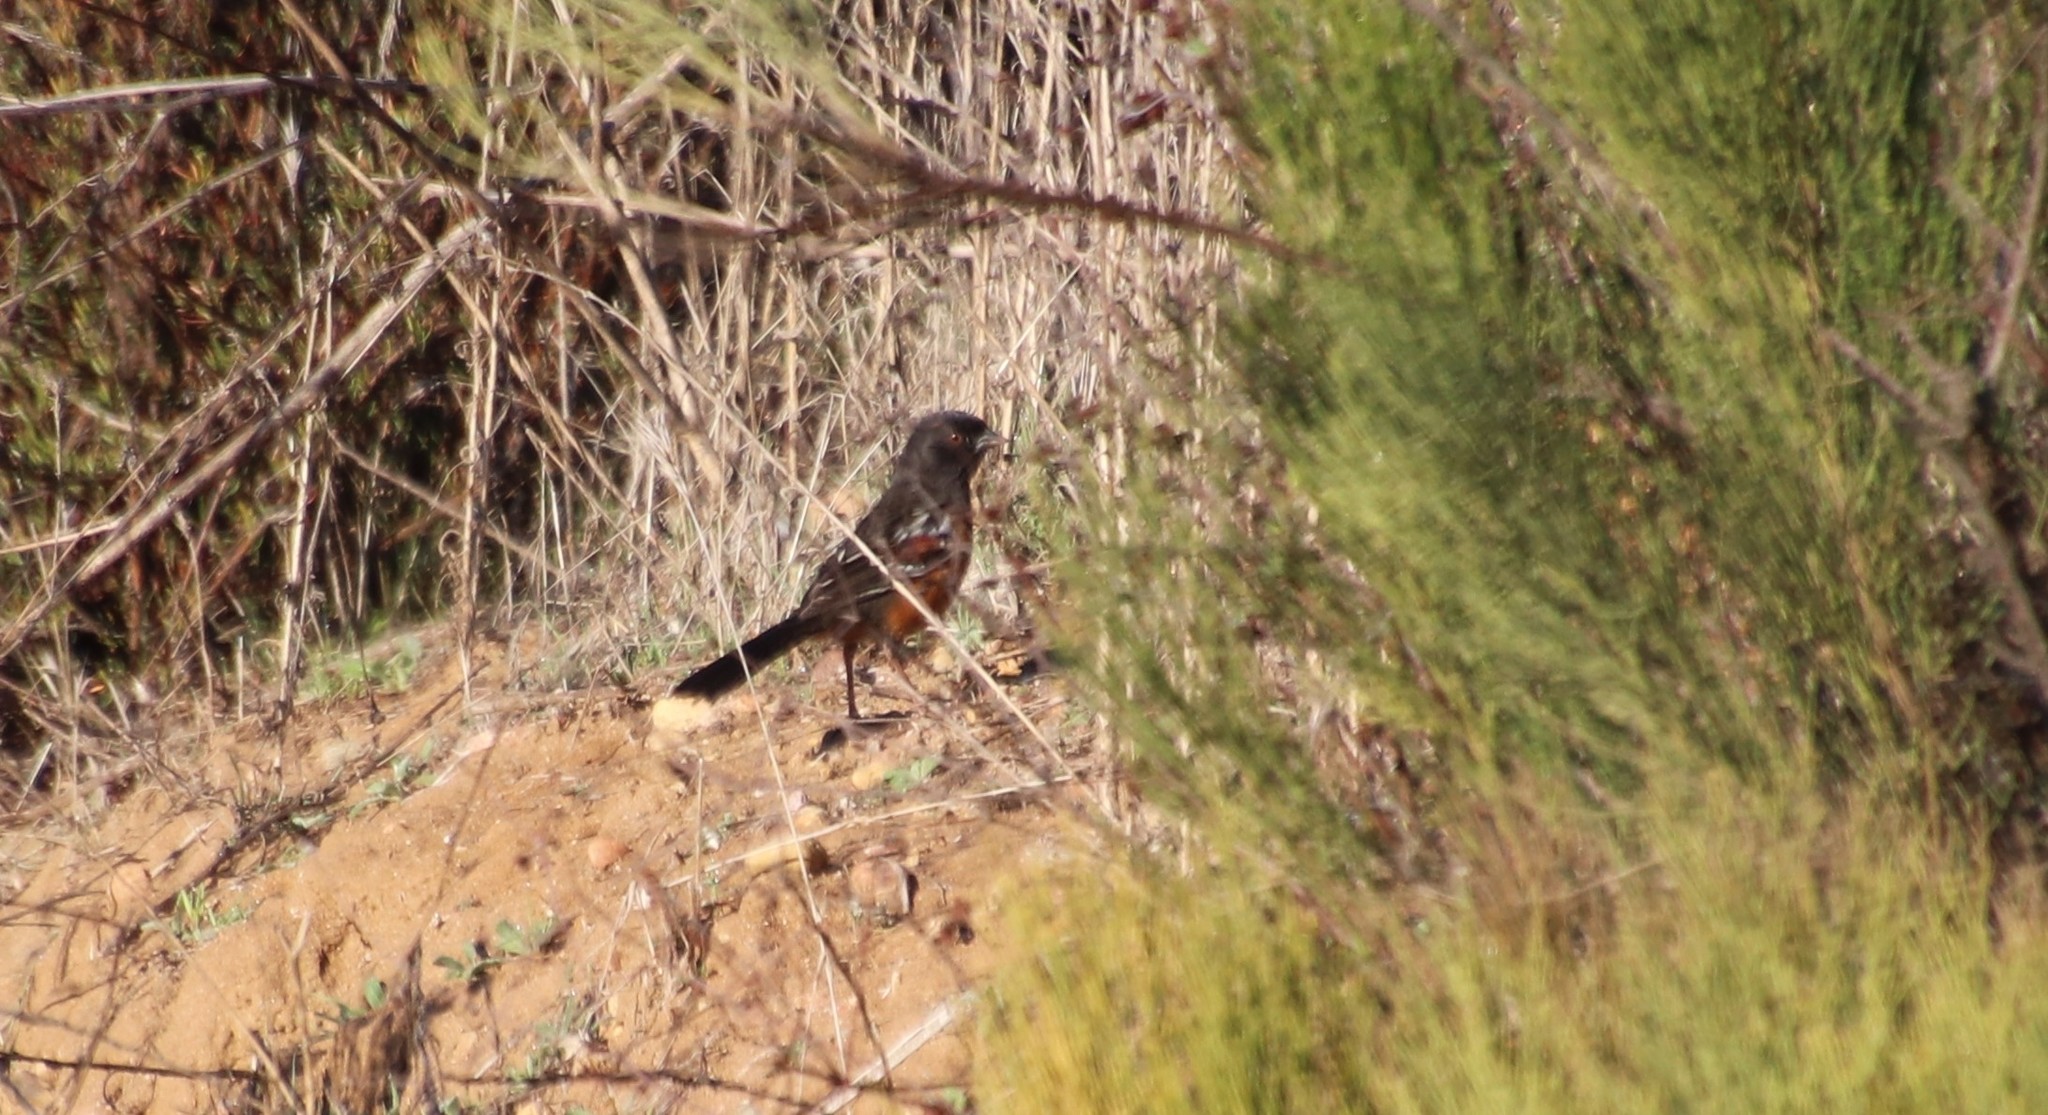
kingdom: Animalia
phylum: Chordata
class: Aves
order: Passeriformes
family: Passerellidae
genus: Pipilo
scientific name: Pipilo maculatus
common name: Spotted towhee
